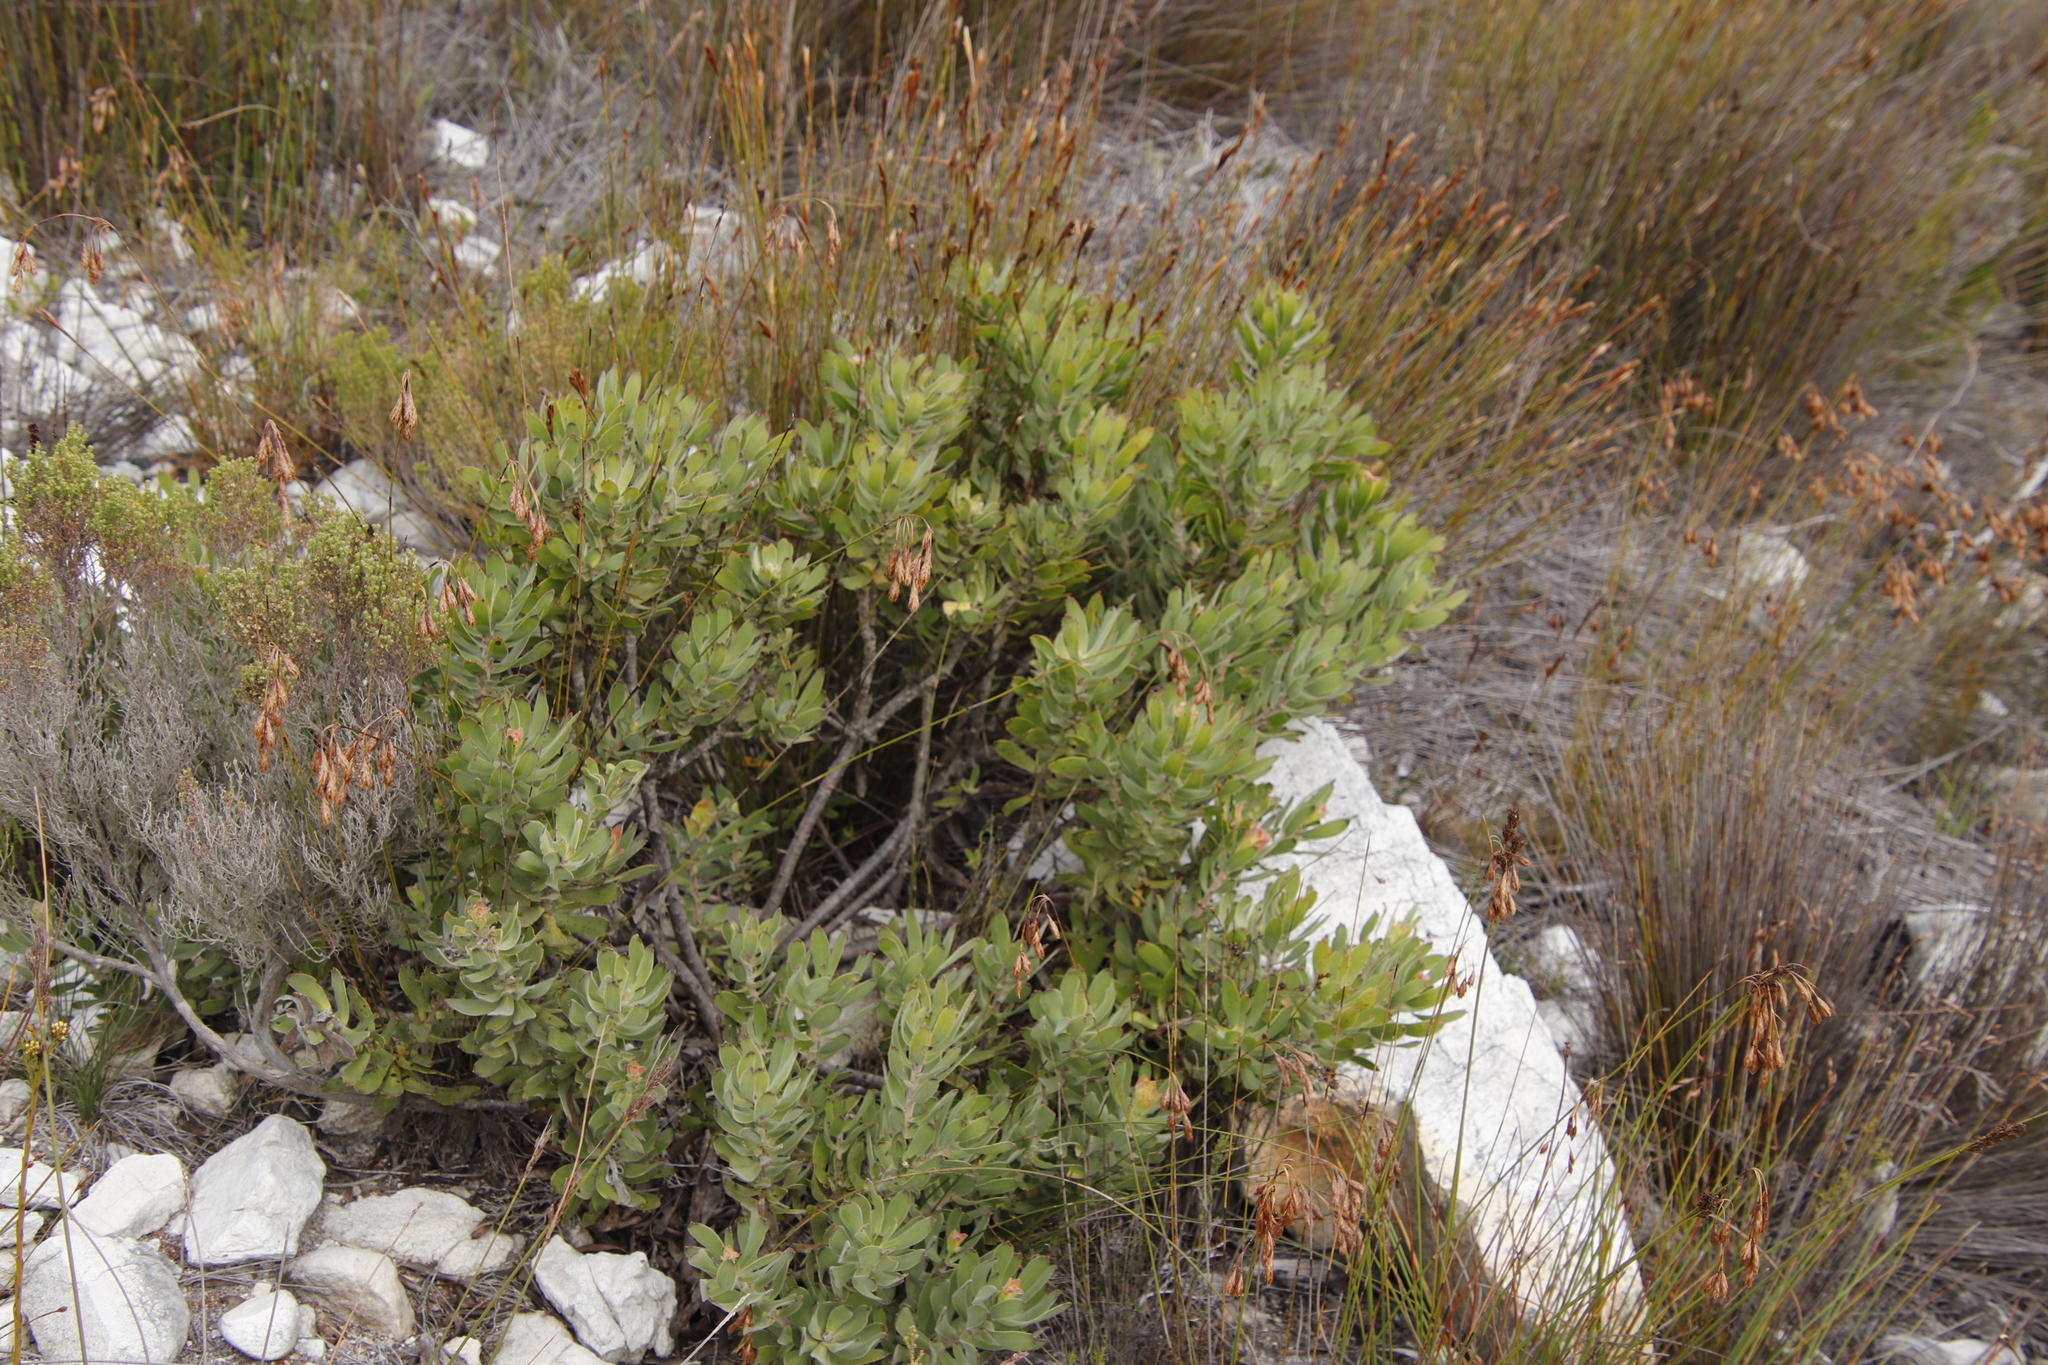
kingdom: Plantae
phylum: Tracheophyta
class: Magnoliopsida
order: Proteales
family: Proteaceae
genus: Mimetes
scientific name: Mimetes cucullatus
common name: Common pagoda
